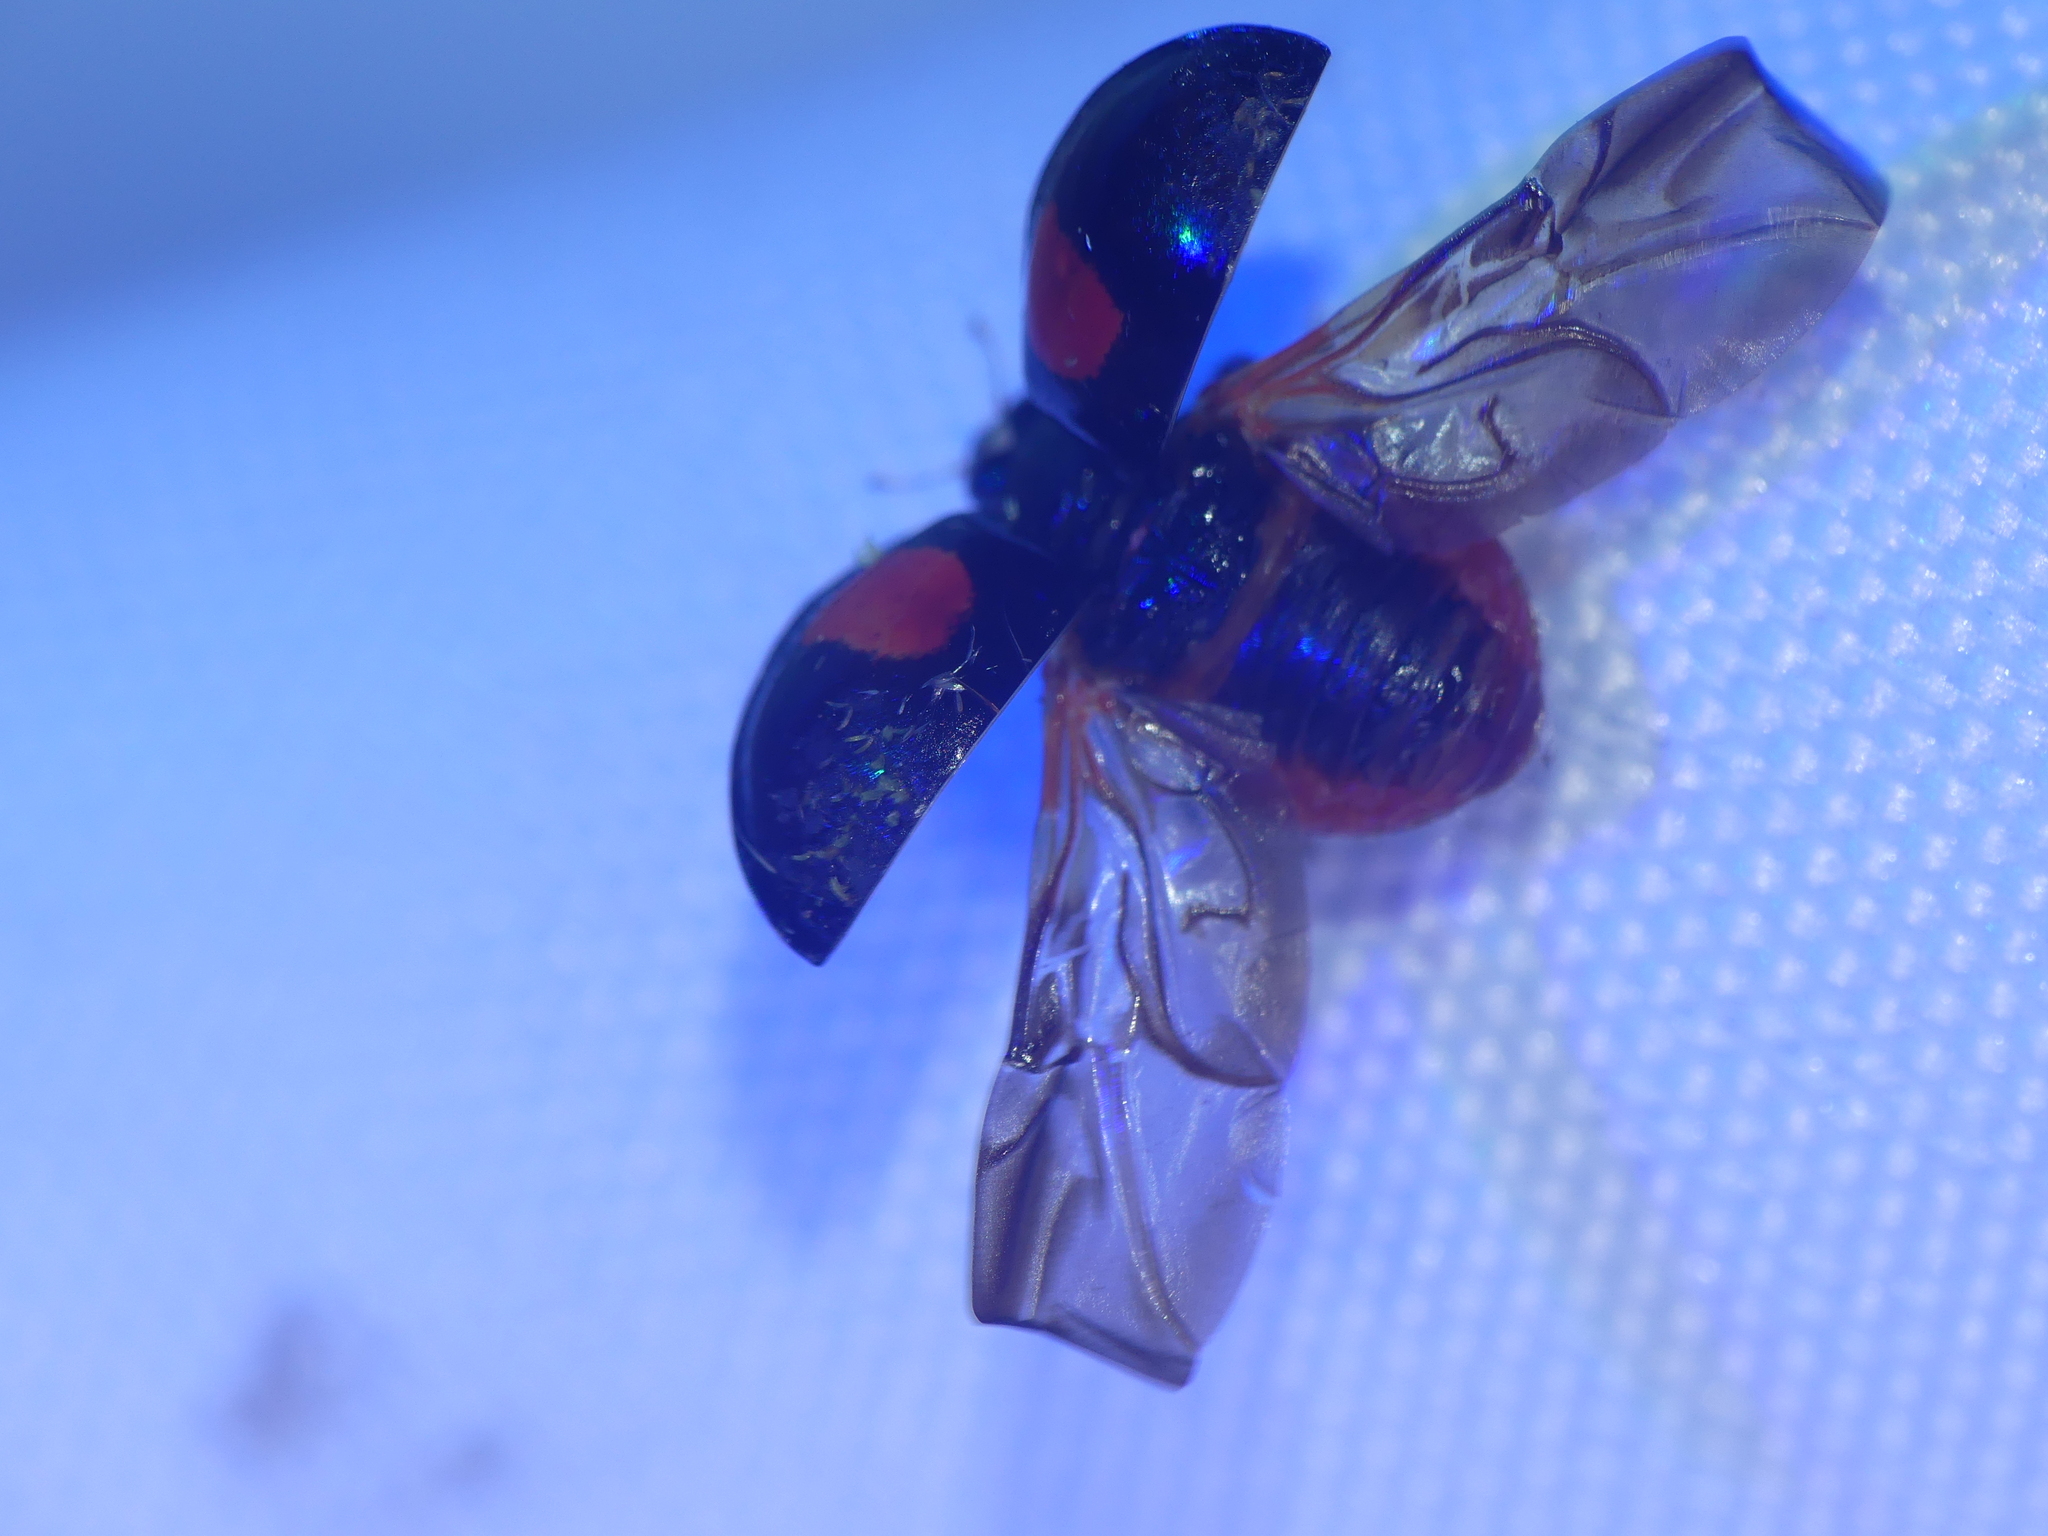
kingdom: Animalia
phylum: Arthropoda
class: Insecta
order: Coleoptera
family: Coccinellidae
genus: Harmonia
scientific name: Harmonia axyridis
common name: Harlequin ladybird
